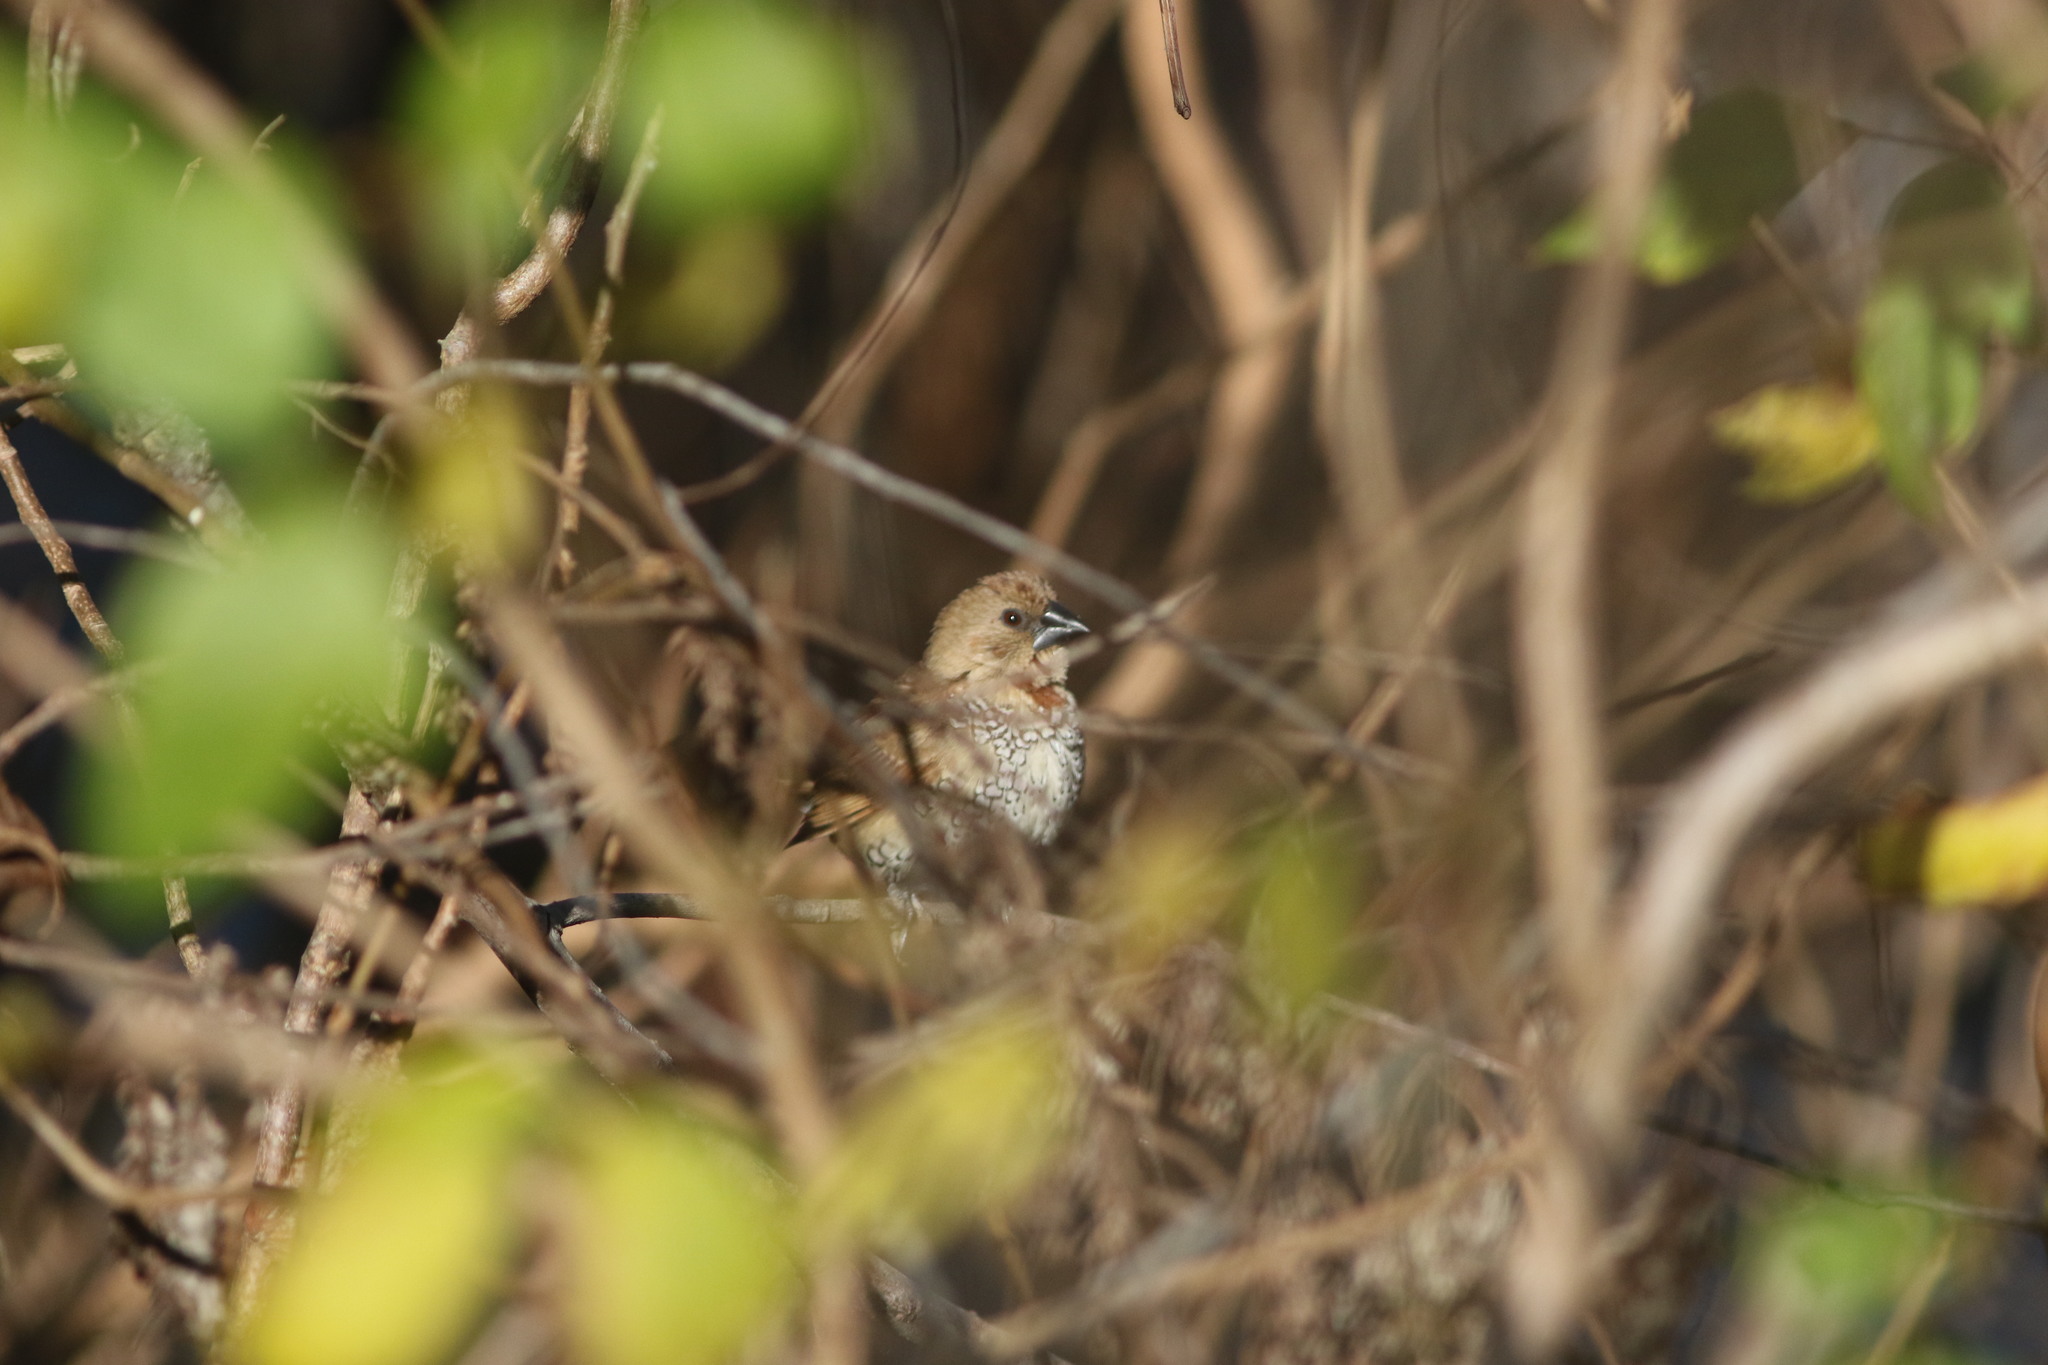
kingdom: Animalia
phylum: Chordata
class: Aves
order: Passeriformes
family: Estrildidae
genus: Lonchura
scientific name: Lonchura punctulata
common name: Scaly-breasted munia
